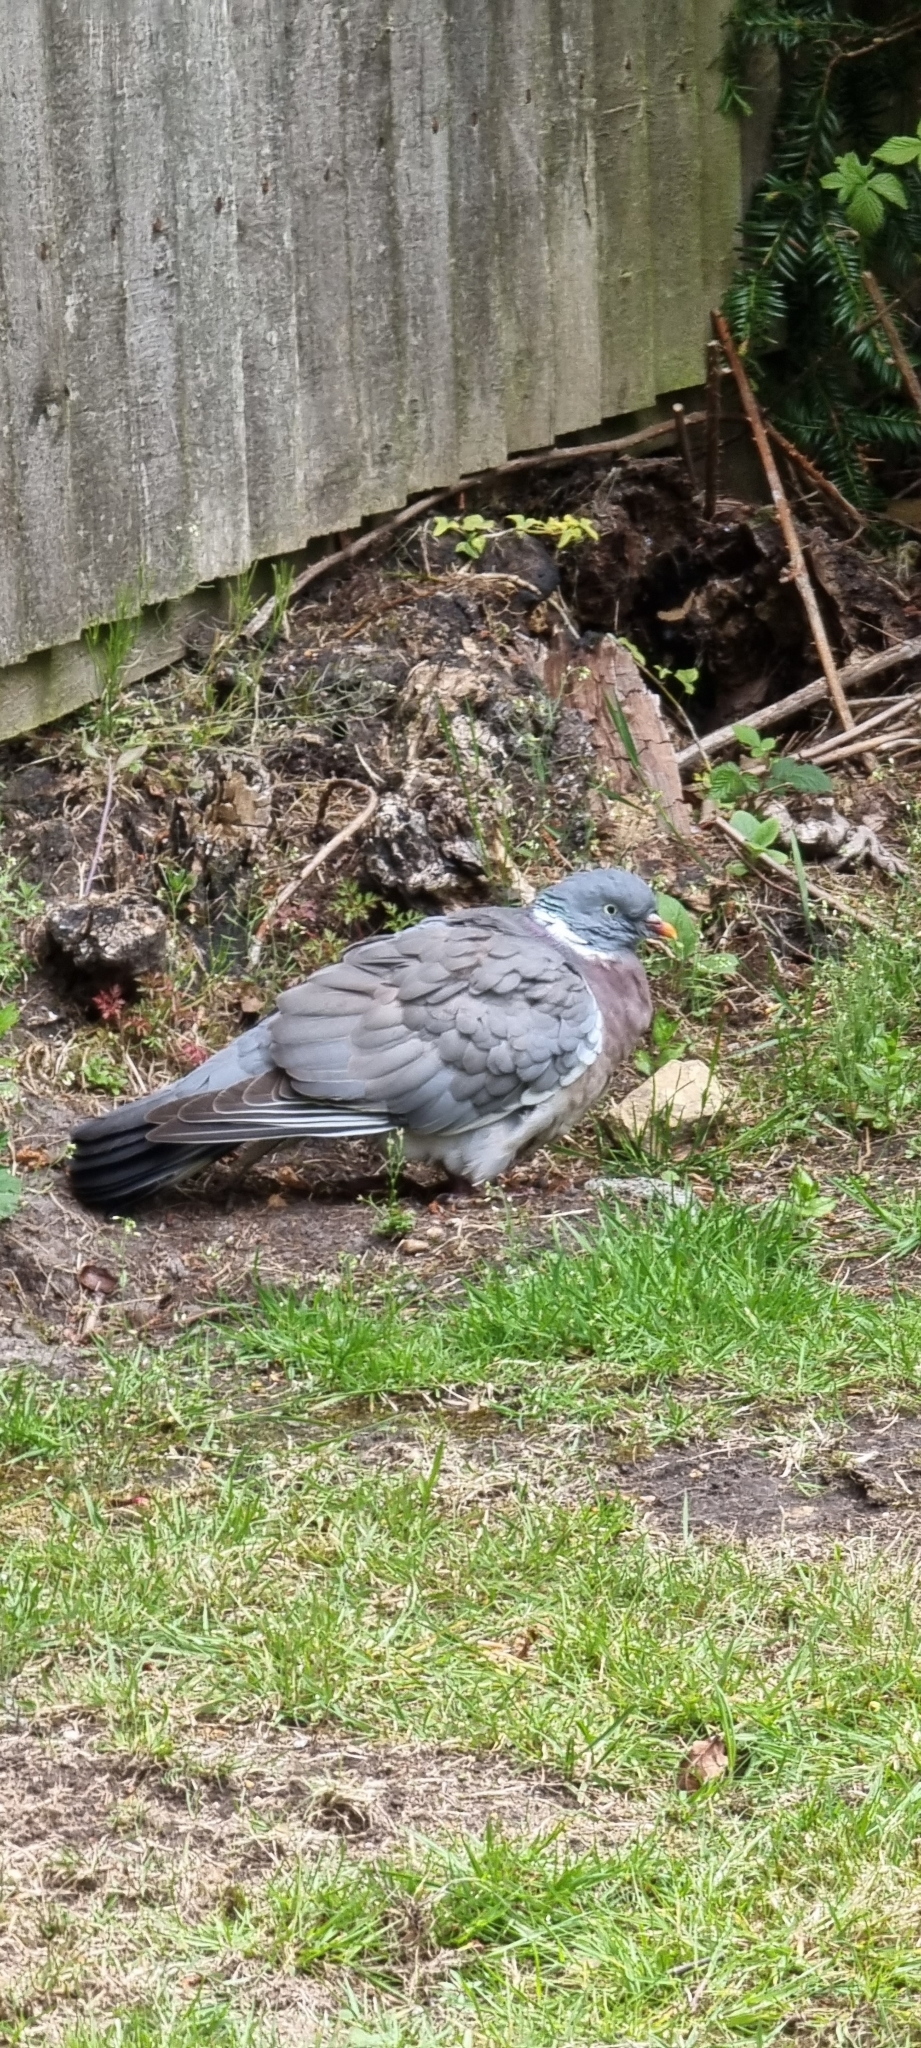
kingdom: Animalia
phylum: Chordata
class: Aves
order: Columbiformes
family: Columbidae
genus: Columba
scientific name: Columba palumbus
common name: Common wood pigeon
